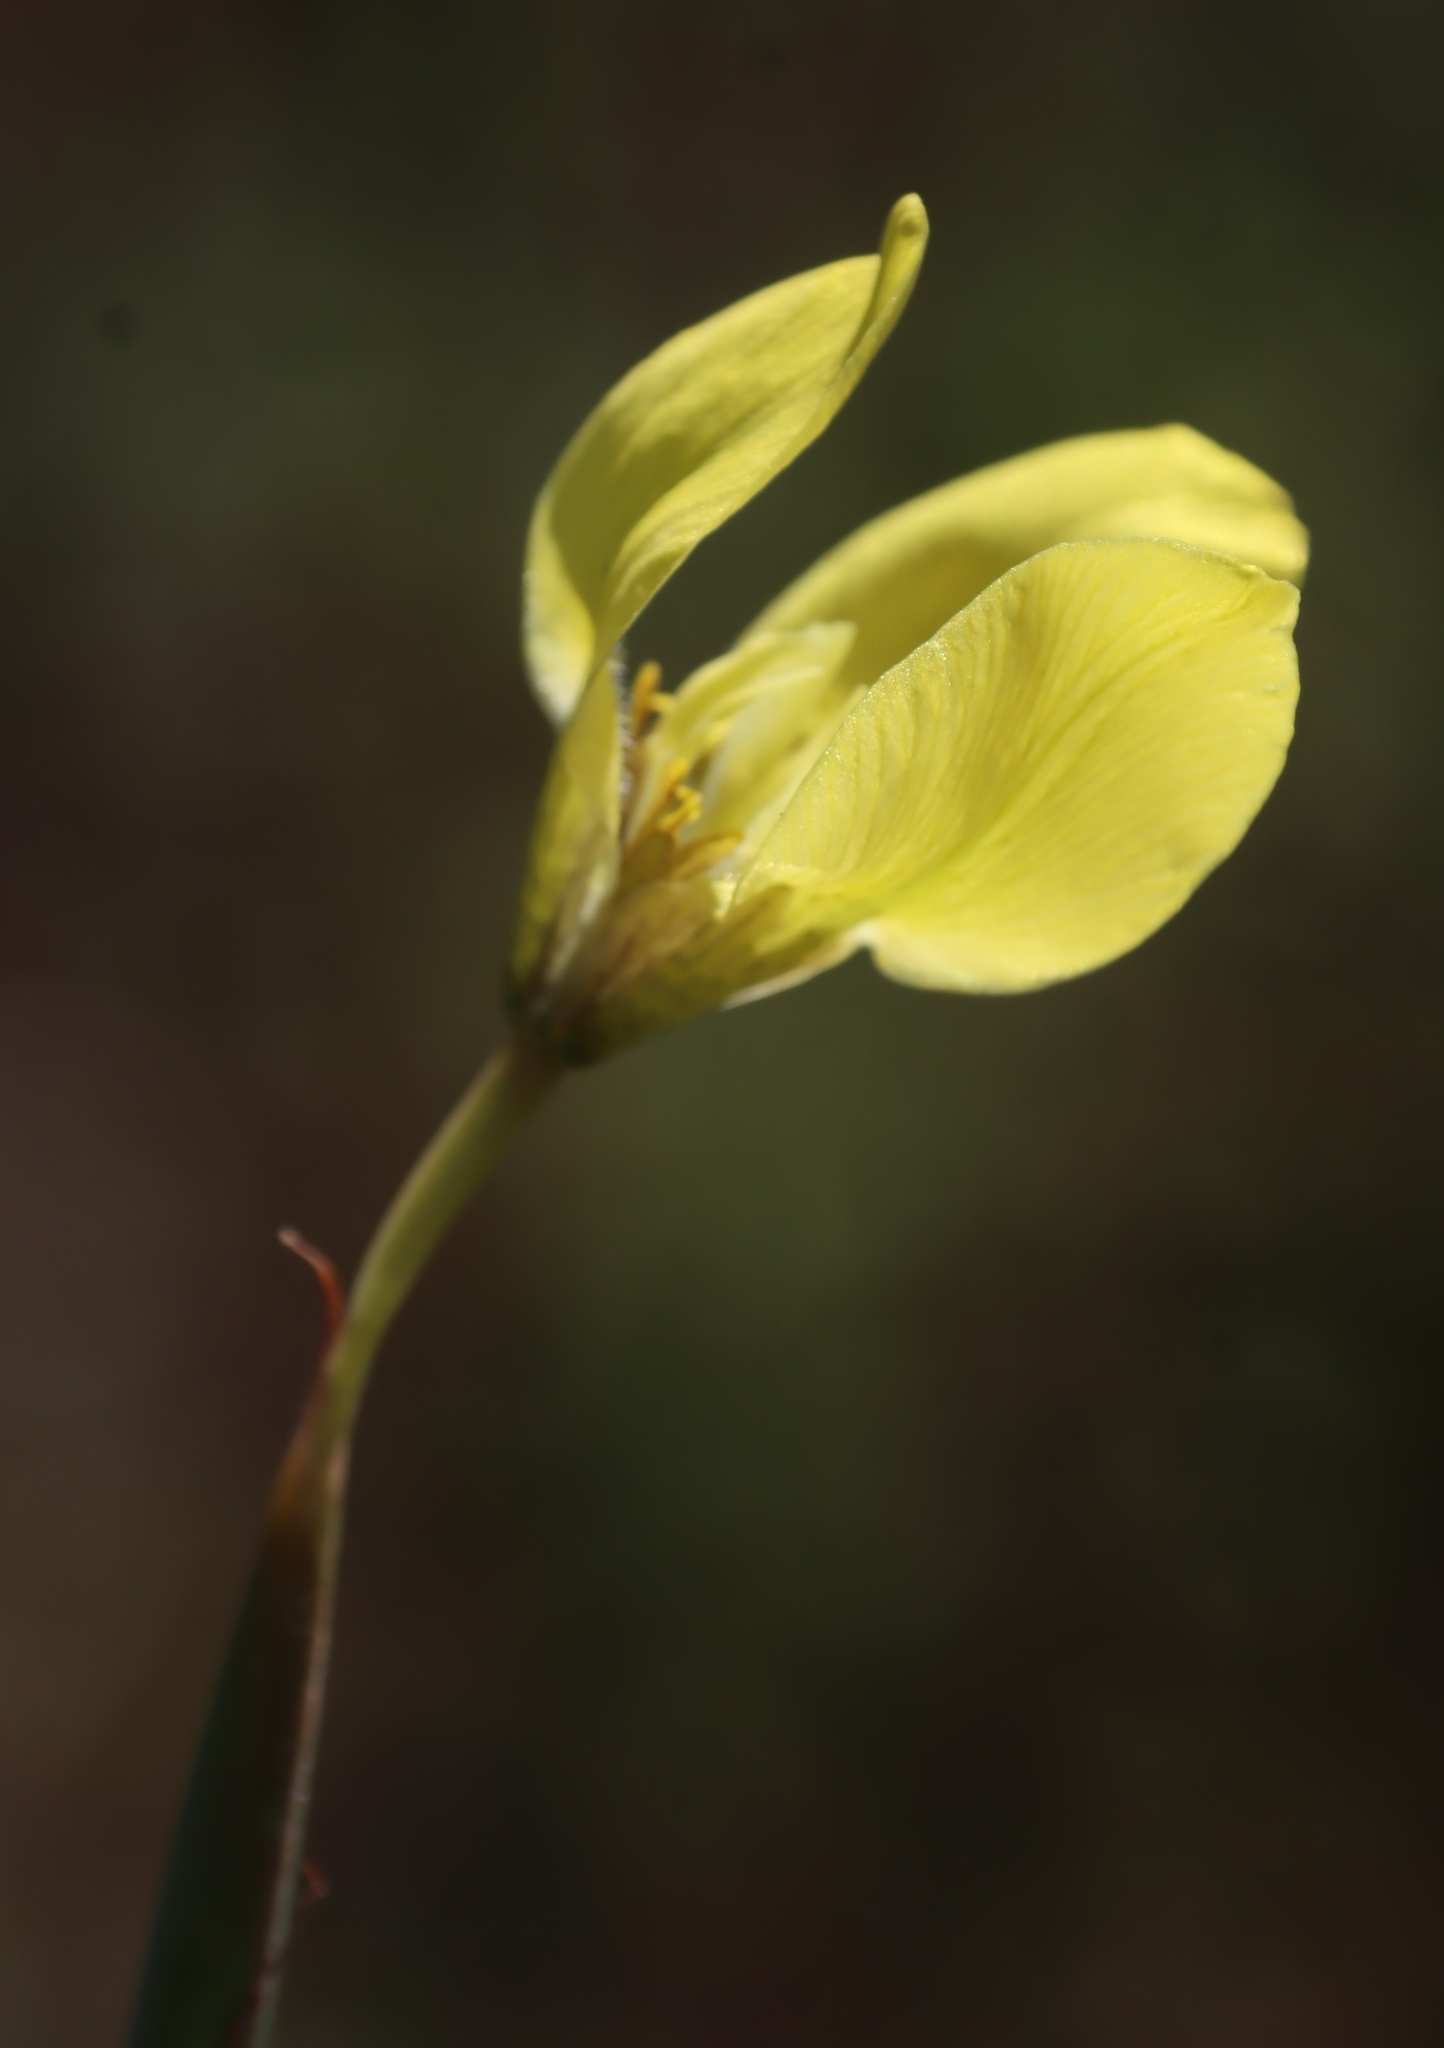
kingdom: Plantae
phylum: Tracheophyta
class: Liliopsida
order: Asparagales
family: Iridaceae
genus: Moraea
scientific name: Moraea bellendenii
